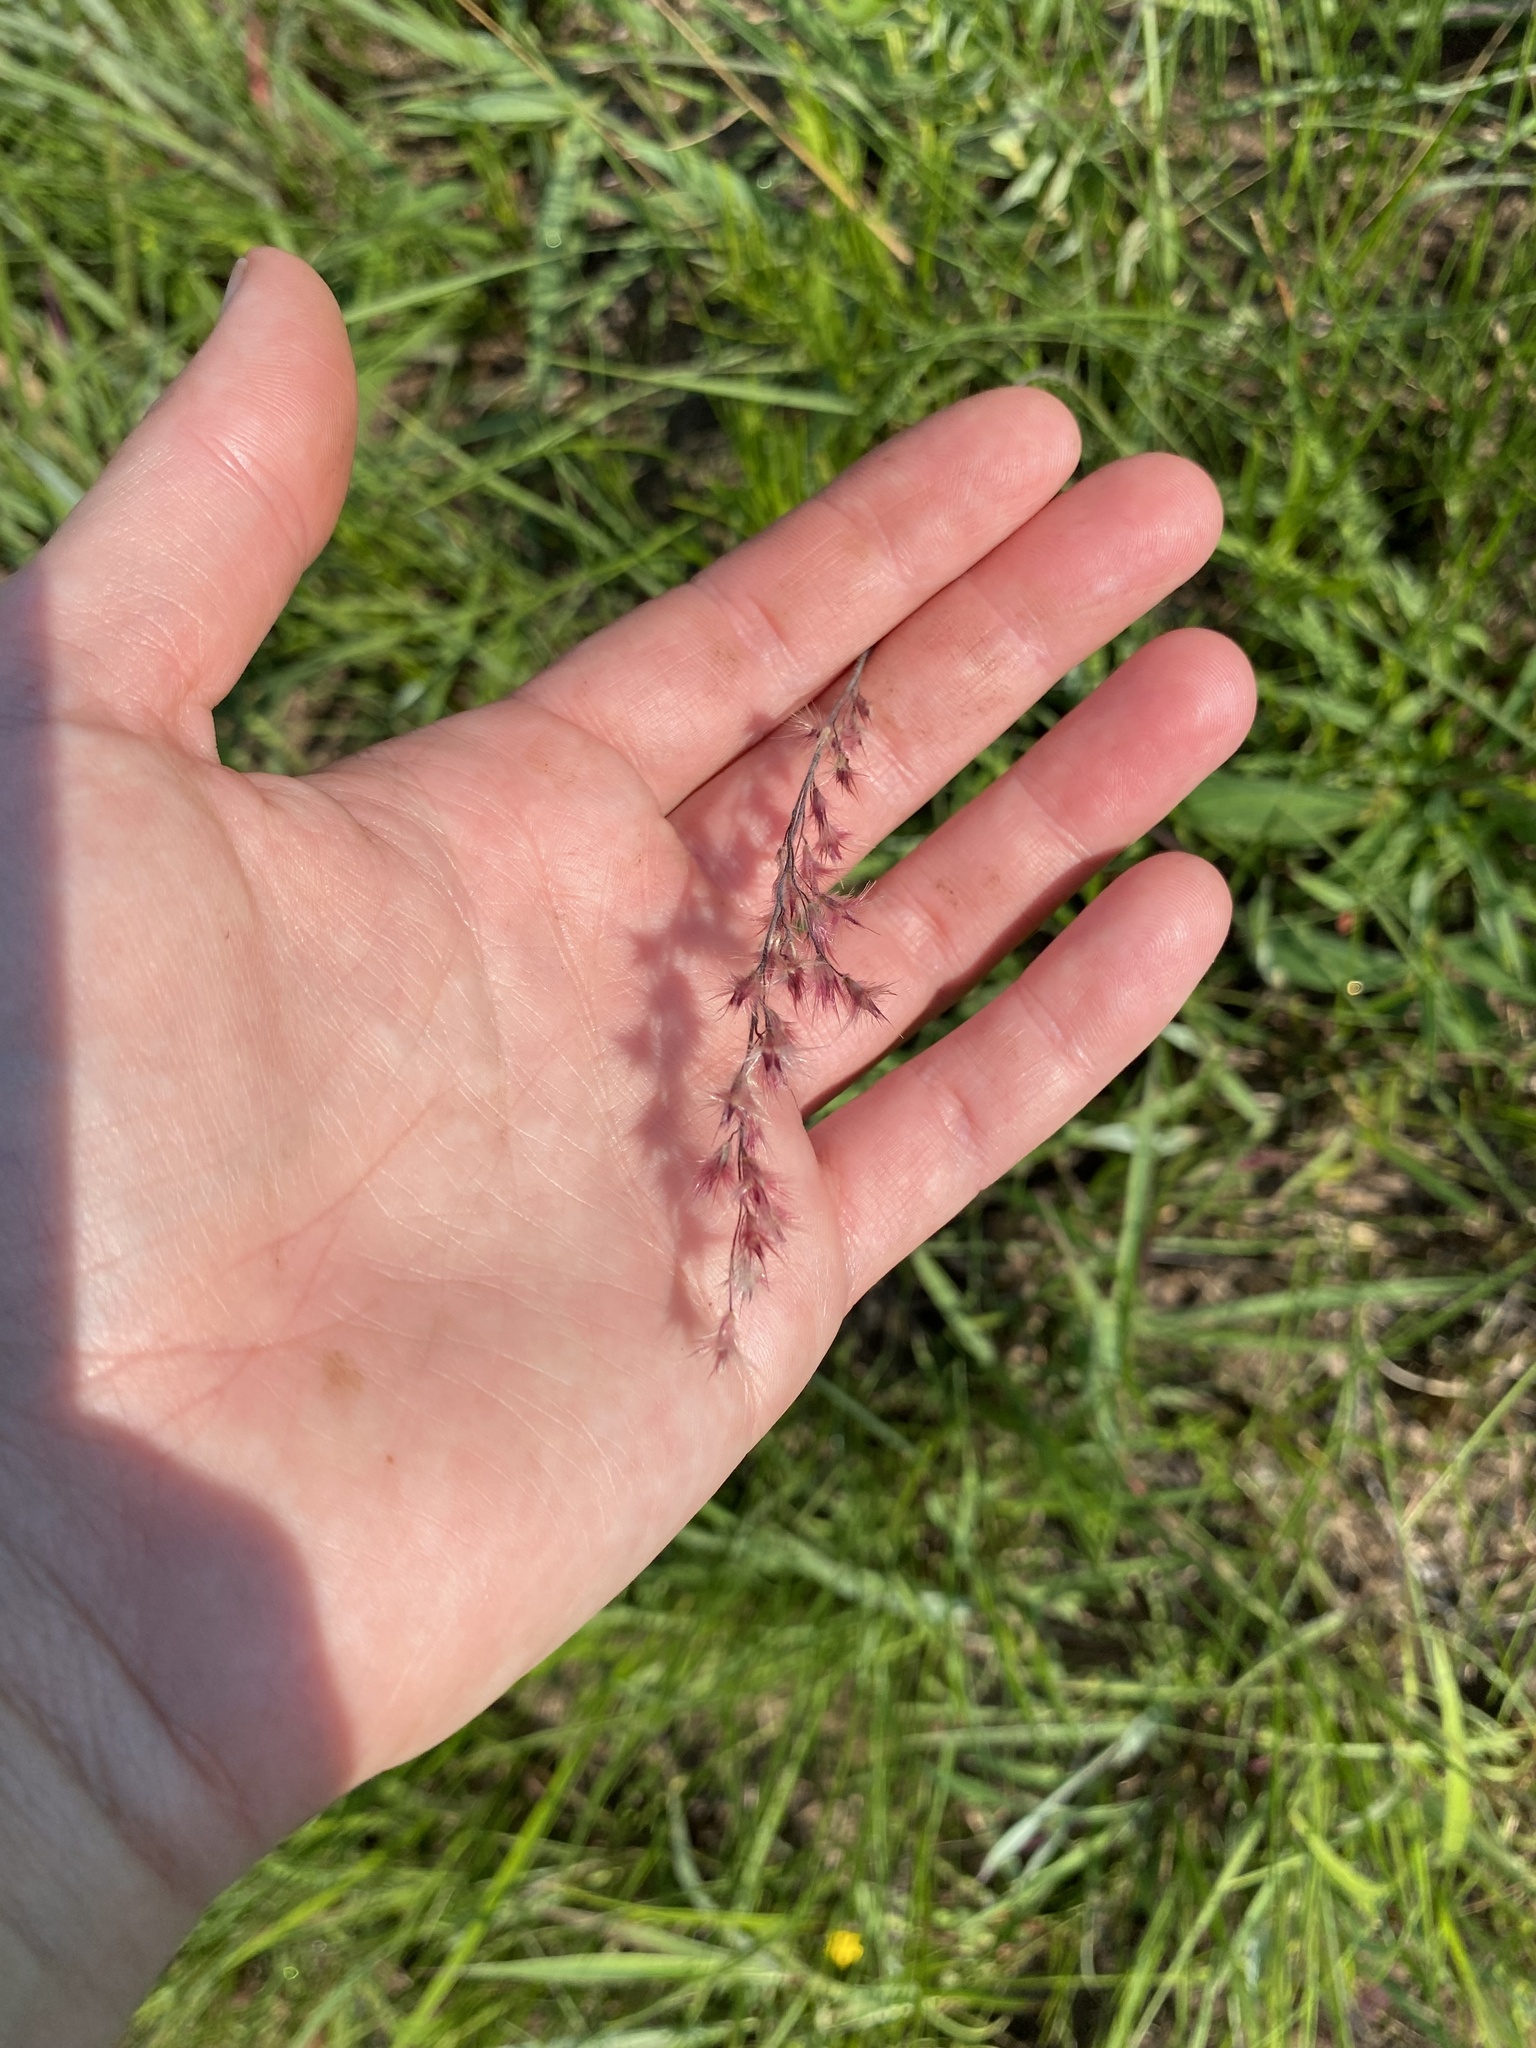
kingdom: Plantae
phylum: Tracheophyta
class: Liliopsida
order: Poales
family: Poaceae
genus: Melinis
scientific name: Melinis repens
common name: Rose natal grass
